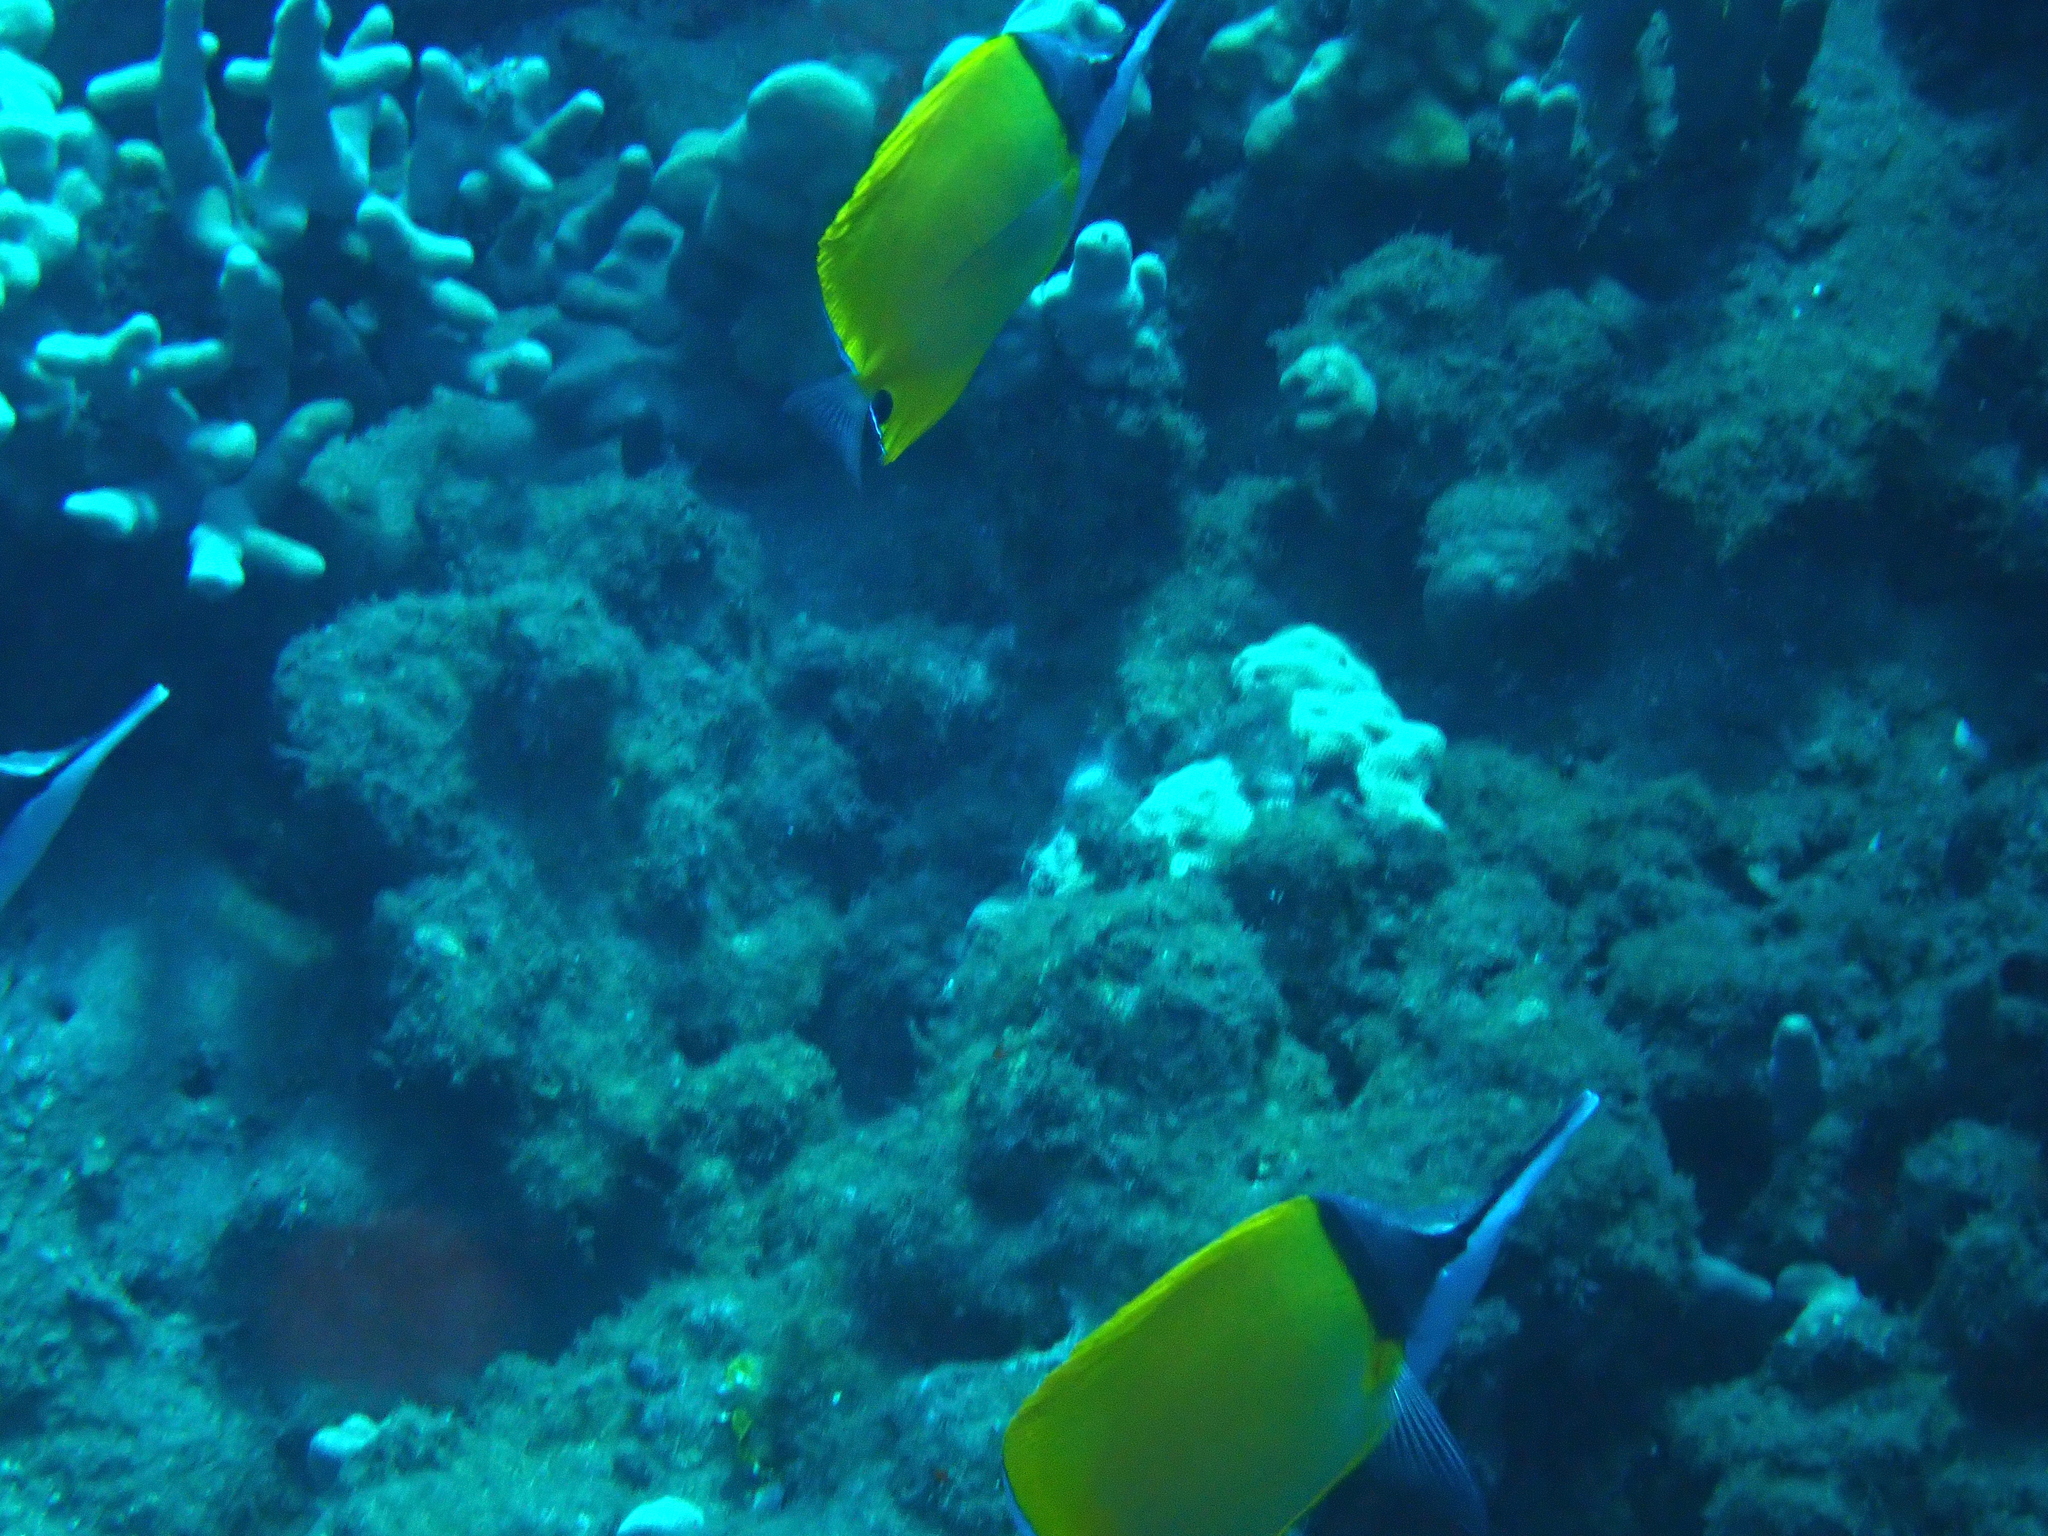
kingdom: Animalia
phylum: Chordata
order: Perciformes
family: Chaetodontidae
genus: Forcipiger
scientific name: Forcipiger flavissimus
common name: Forcepsfish
